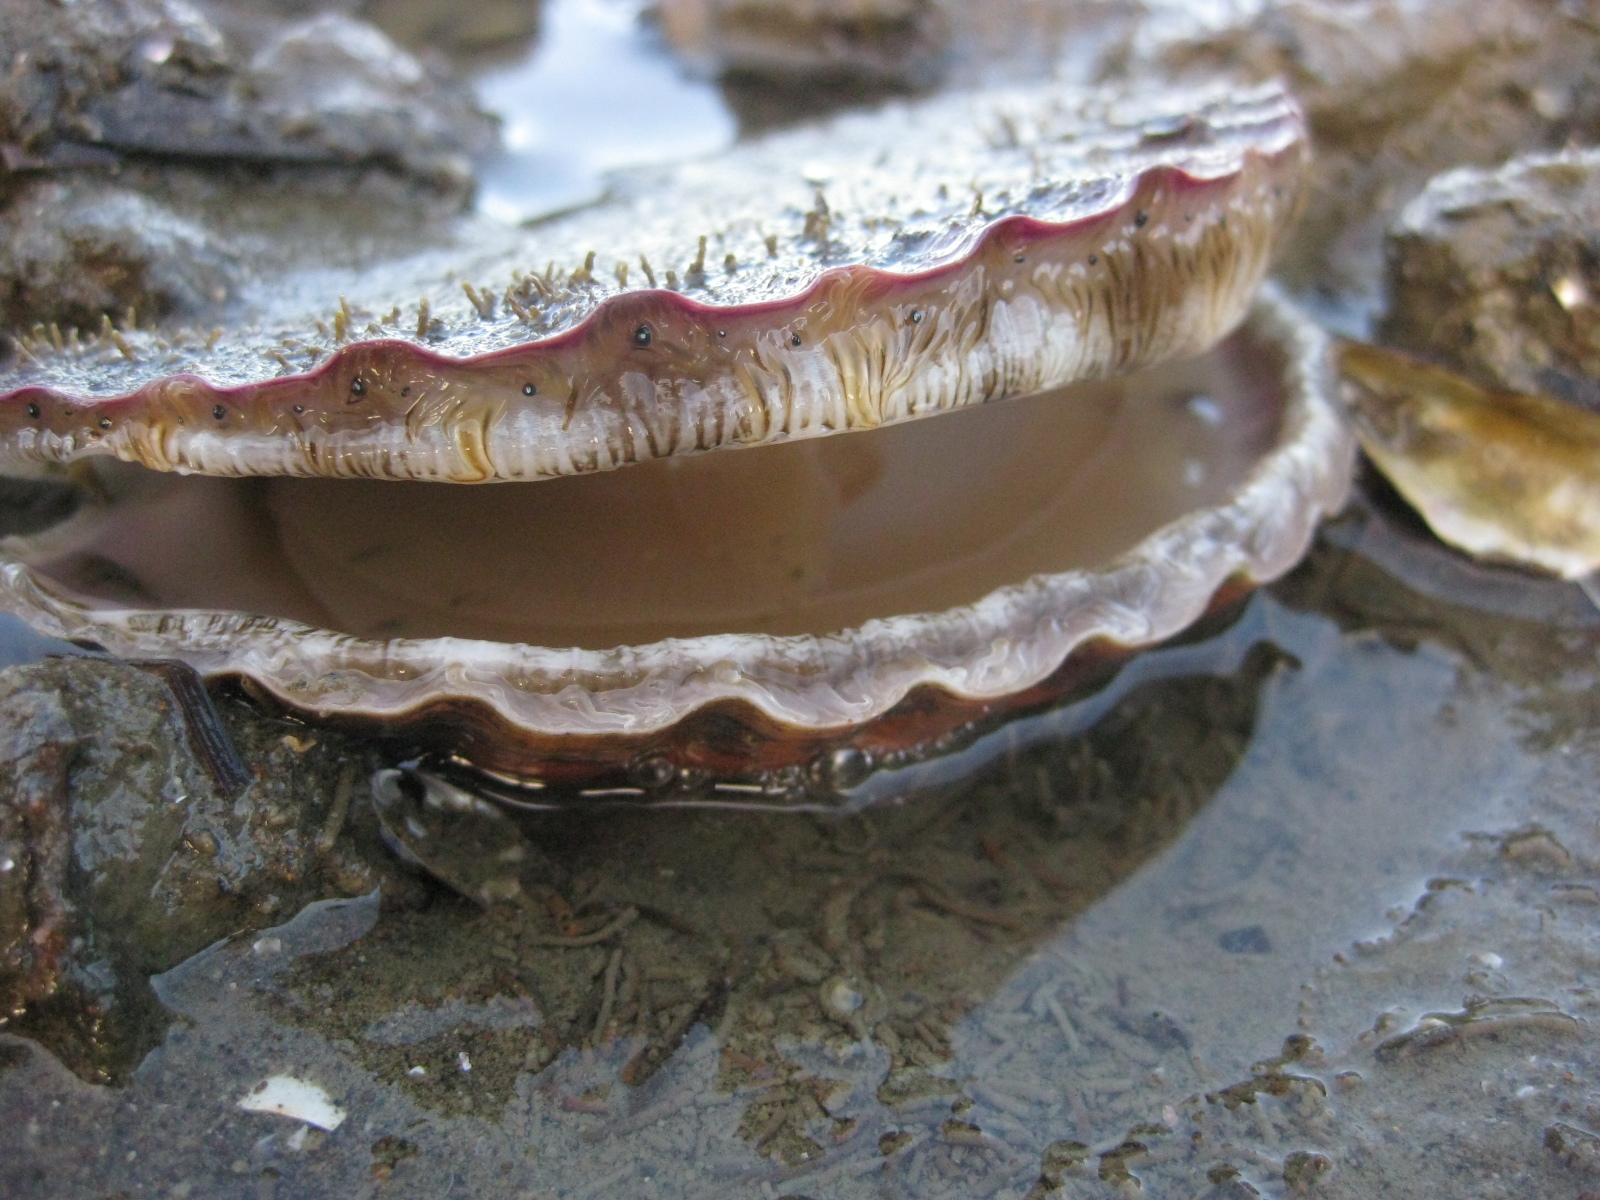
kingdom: Animalia
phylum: Mollusca
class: Bivalvia
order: Pectinida
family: Pectinidae
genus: Pecten
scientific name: Pecten novaezelandiae
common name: New zealand scallop
